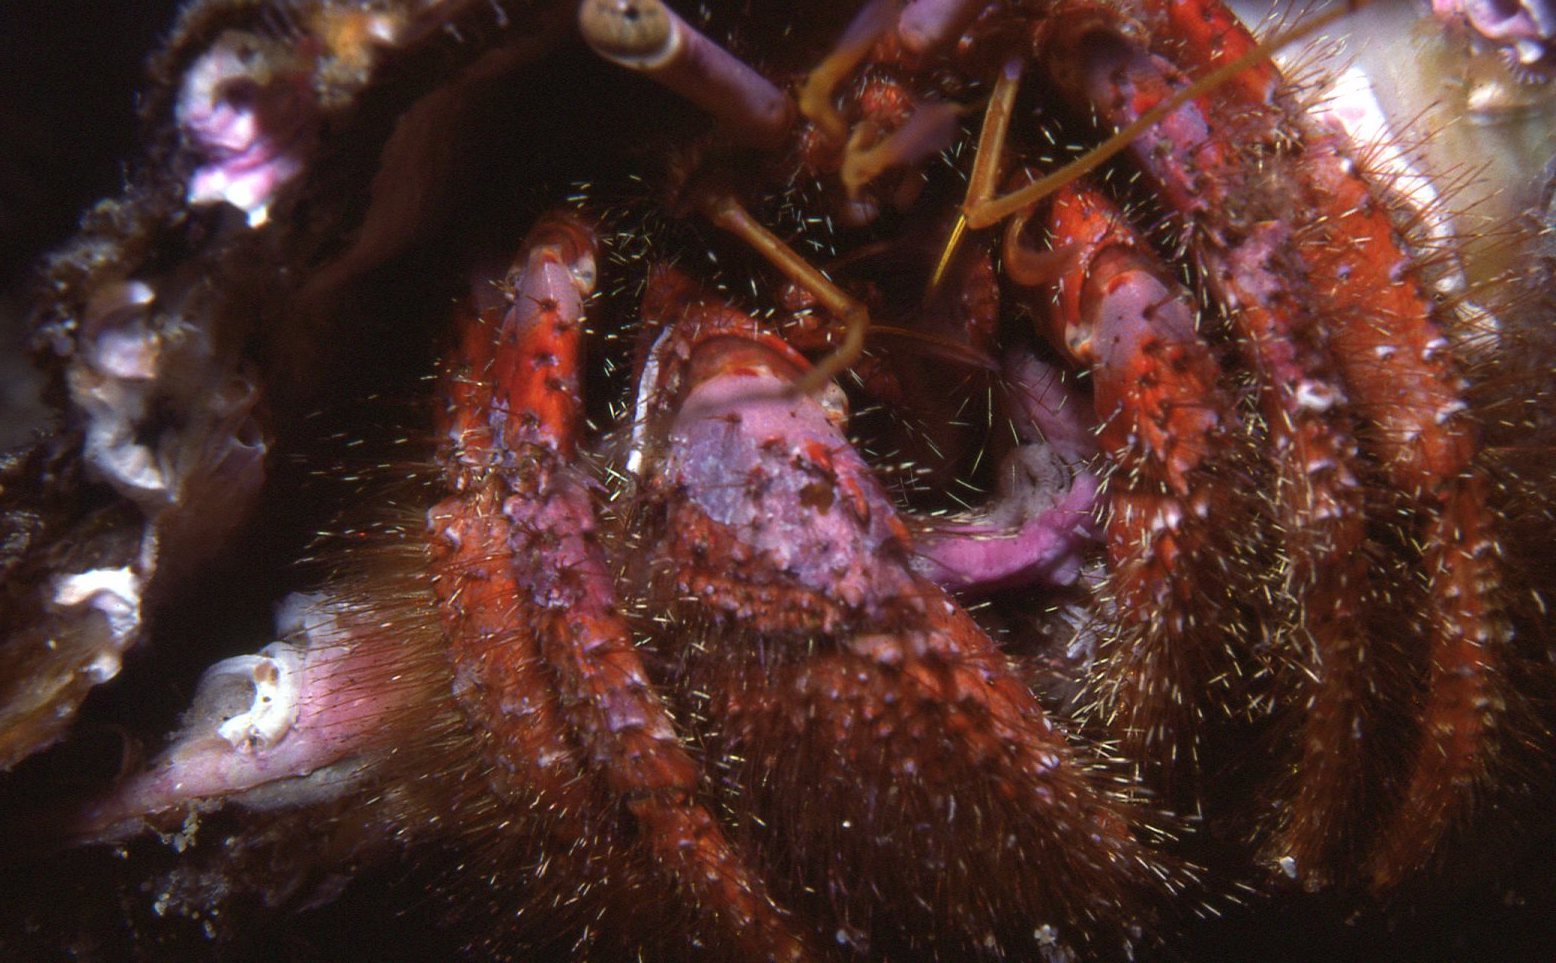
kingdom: Animalia
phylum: Arthropoda
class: Malacostraca
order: Decapoda
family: Diogenidae
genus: Dardanus
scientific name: Dardanus crassimanus
